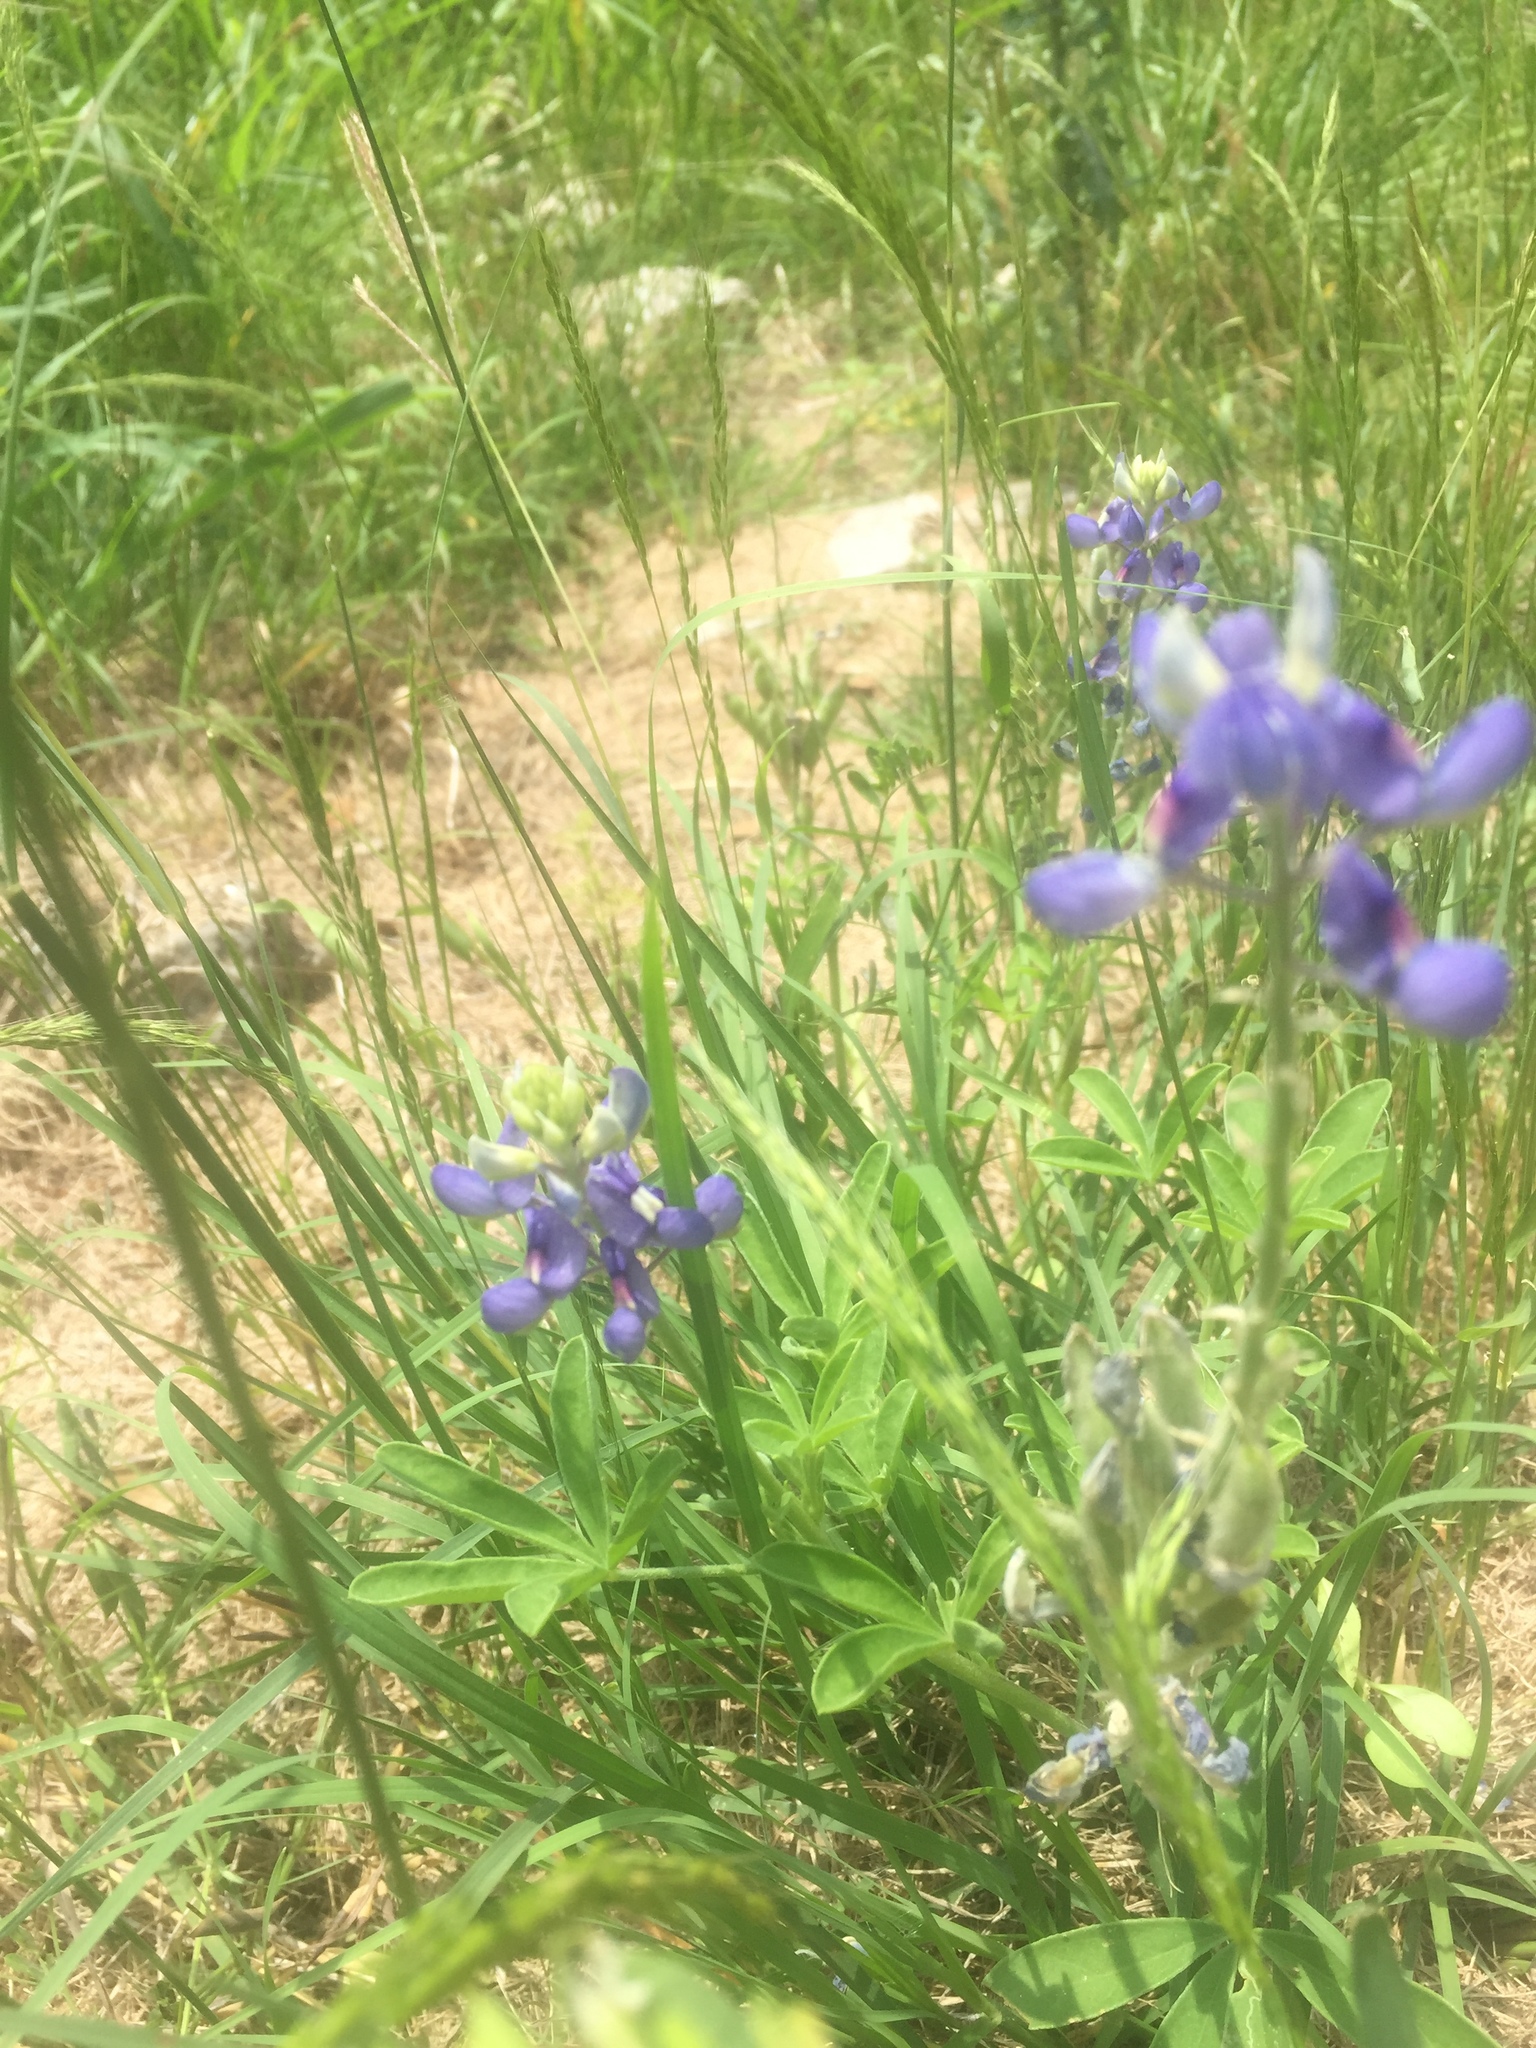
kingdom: Plantae
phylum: Tracheophyta
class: Magnoliopsida
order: Fabales
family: Fabaceae
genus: Lupinus
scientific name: Lupinus texensis
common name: Texas bluebonnet
